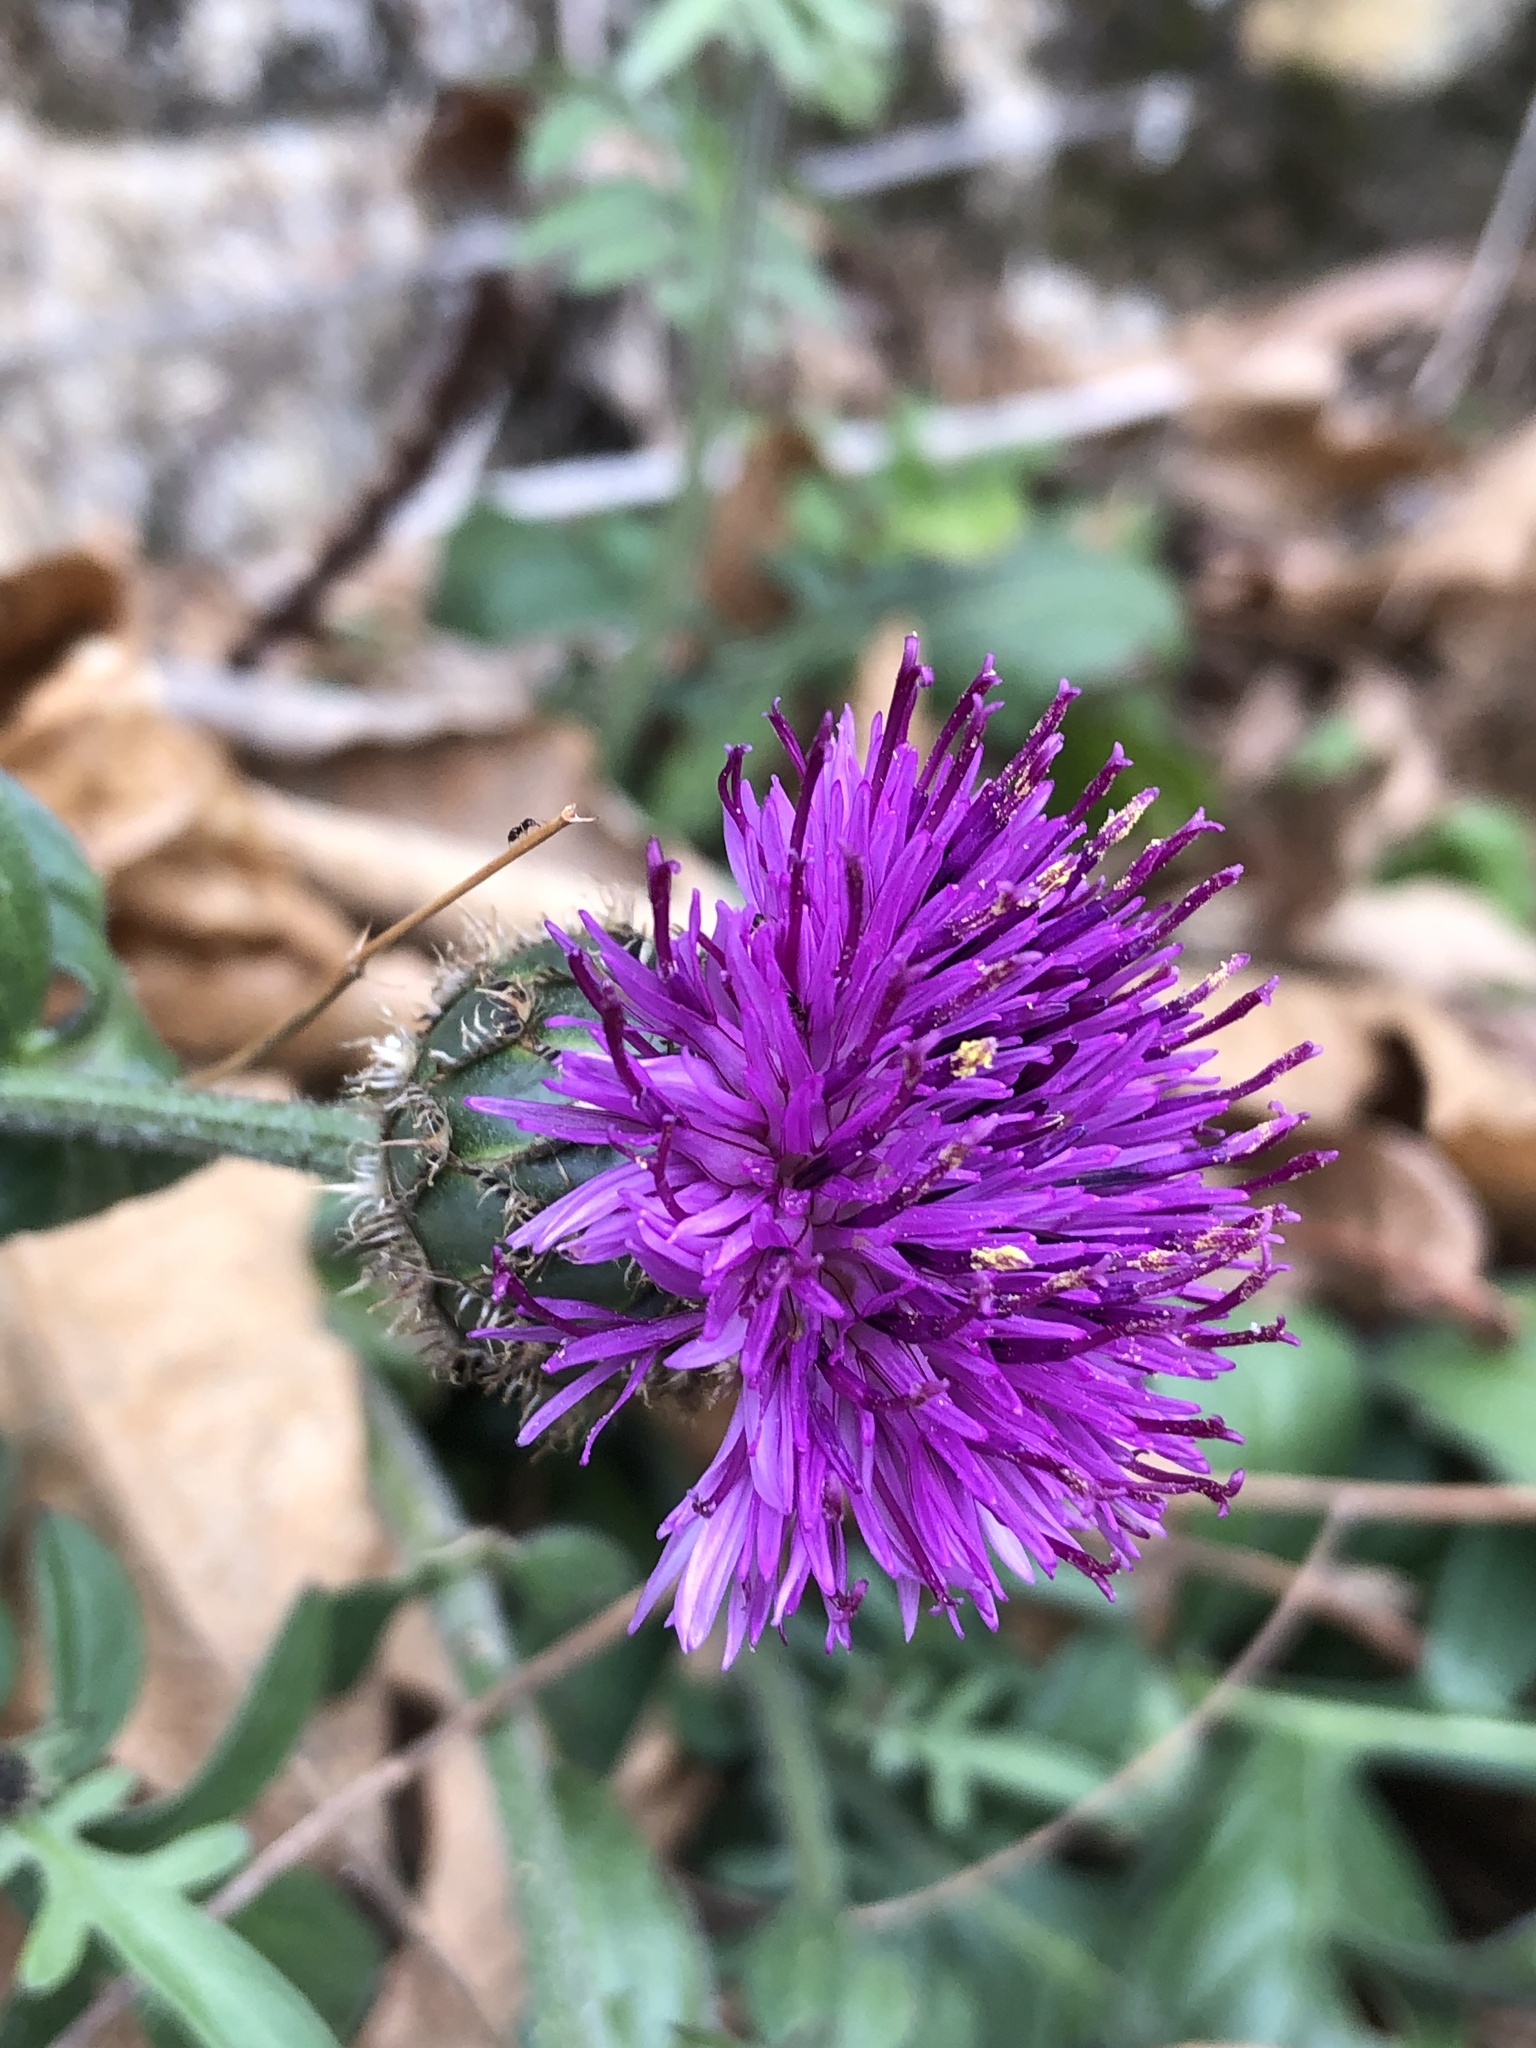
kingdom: Plantae
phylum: Tracheophyta
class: Magnoliopsida
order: Asterales
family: Asteraceae
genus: Centaurea
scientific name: Centaurea scabiosa
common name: Greater knapweed
